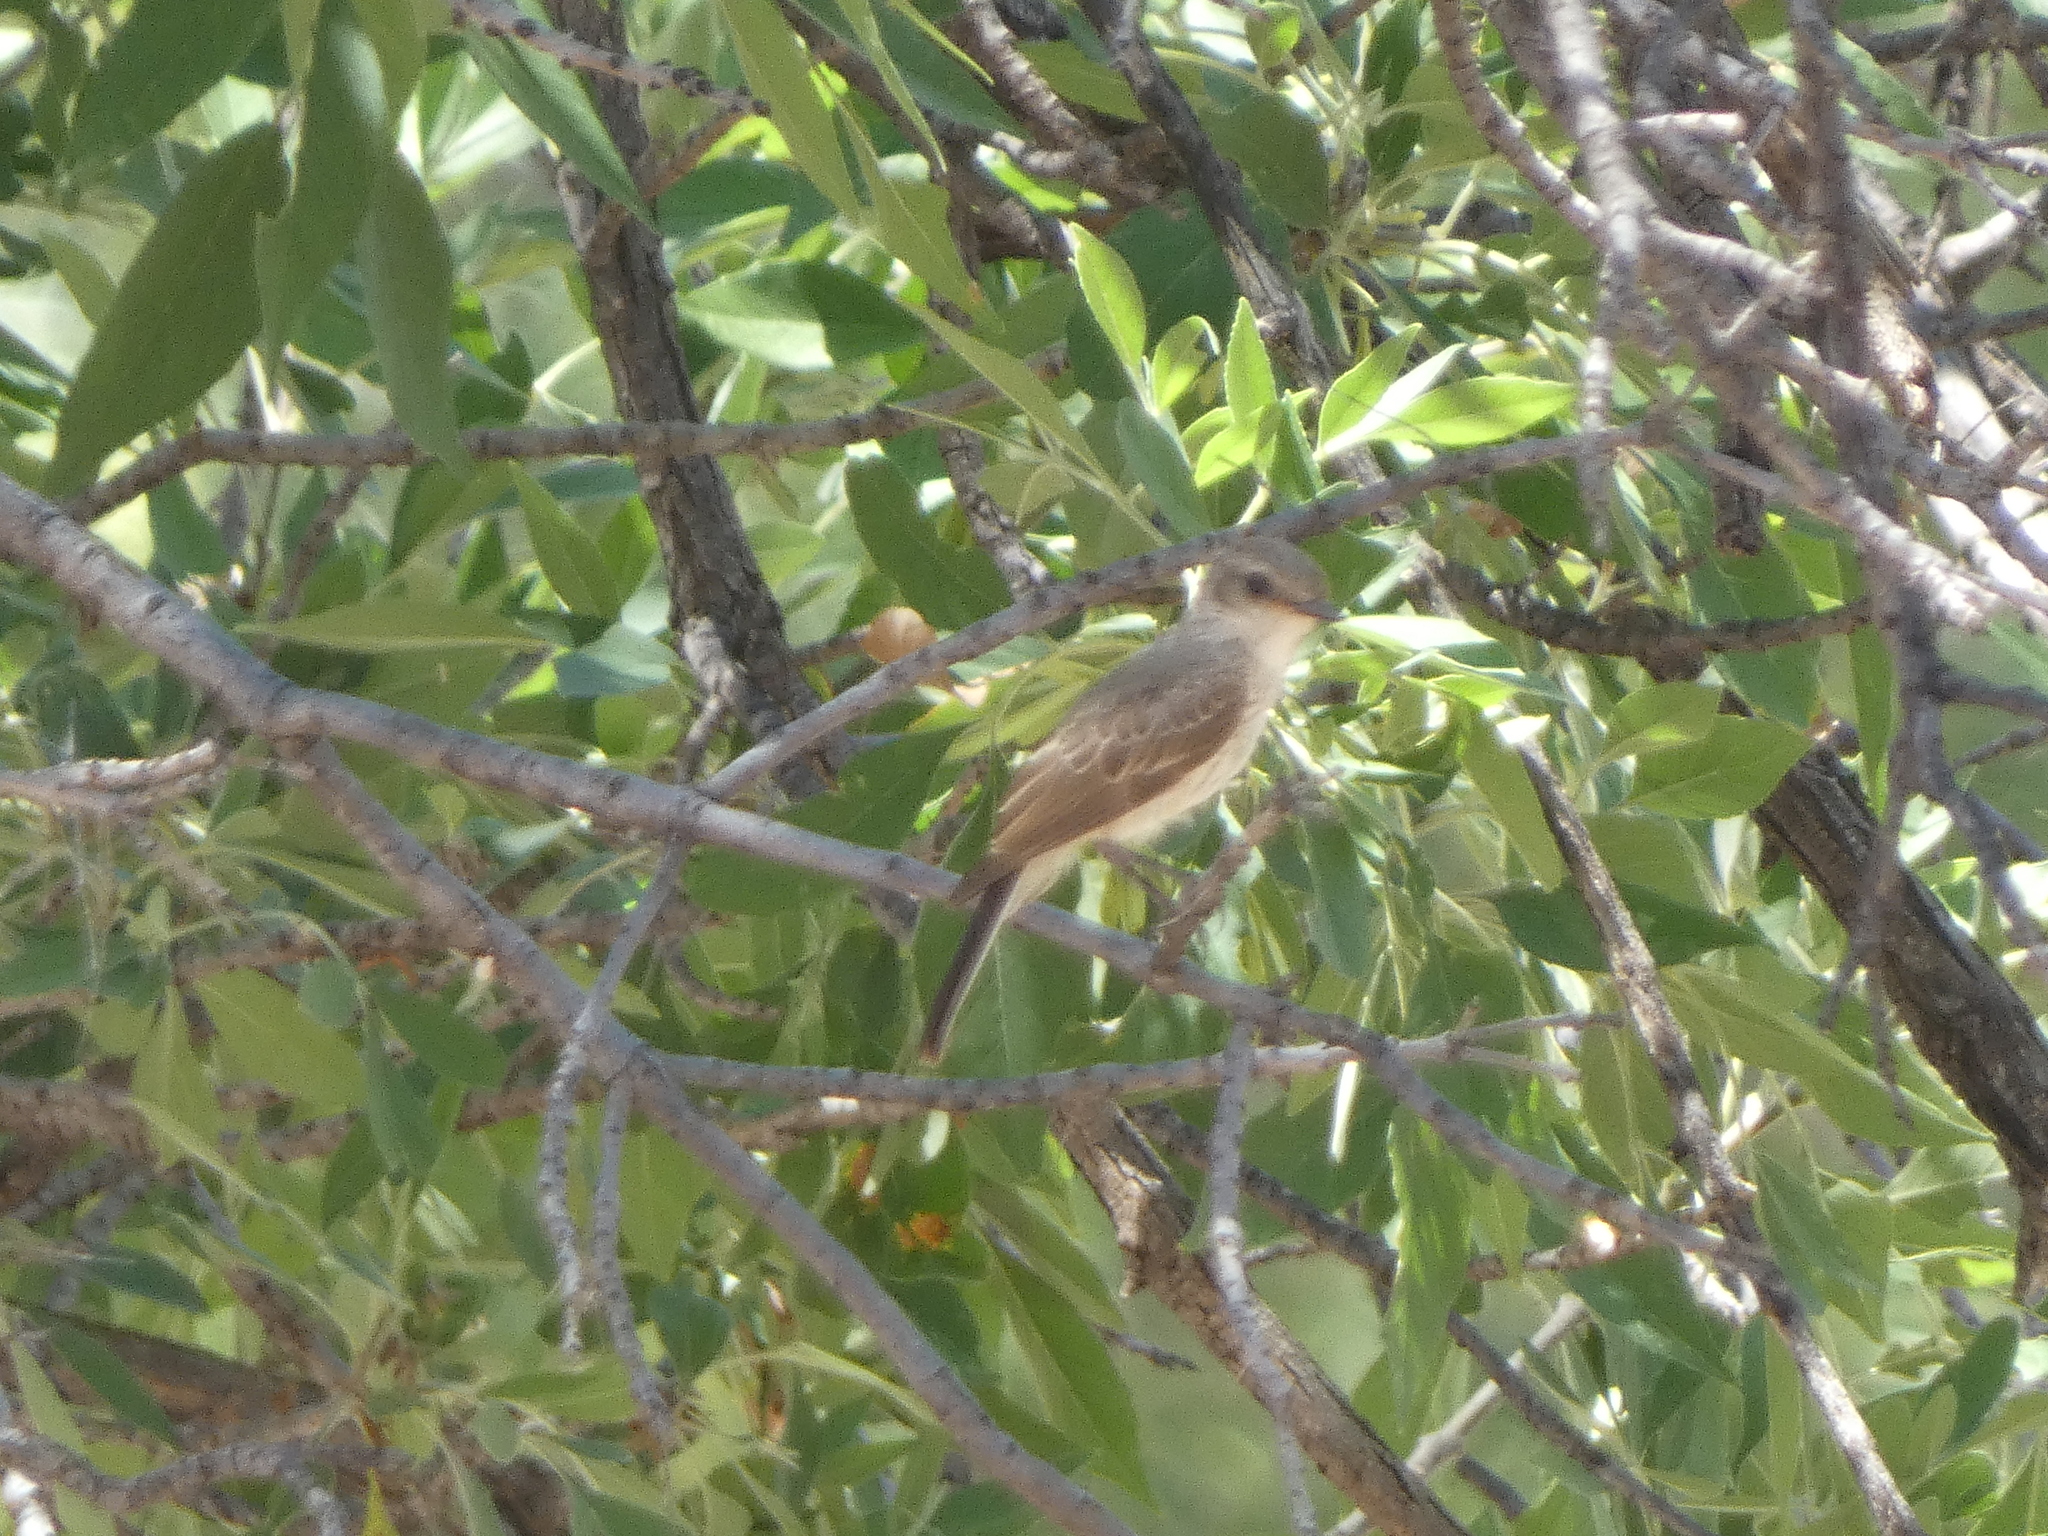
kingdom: Animalia
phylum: Chordata
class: Aves
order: Passeriformes
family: Tyrannidae
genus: Pyrocephalus
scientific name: Pyrocephalus rubinus
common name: Vermilion flycatcher
